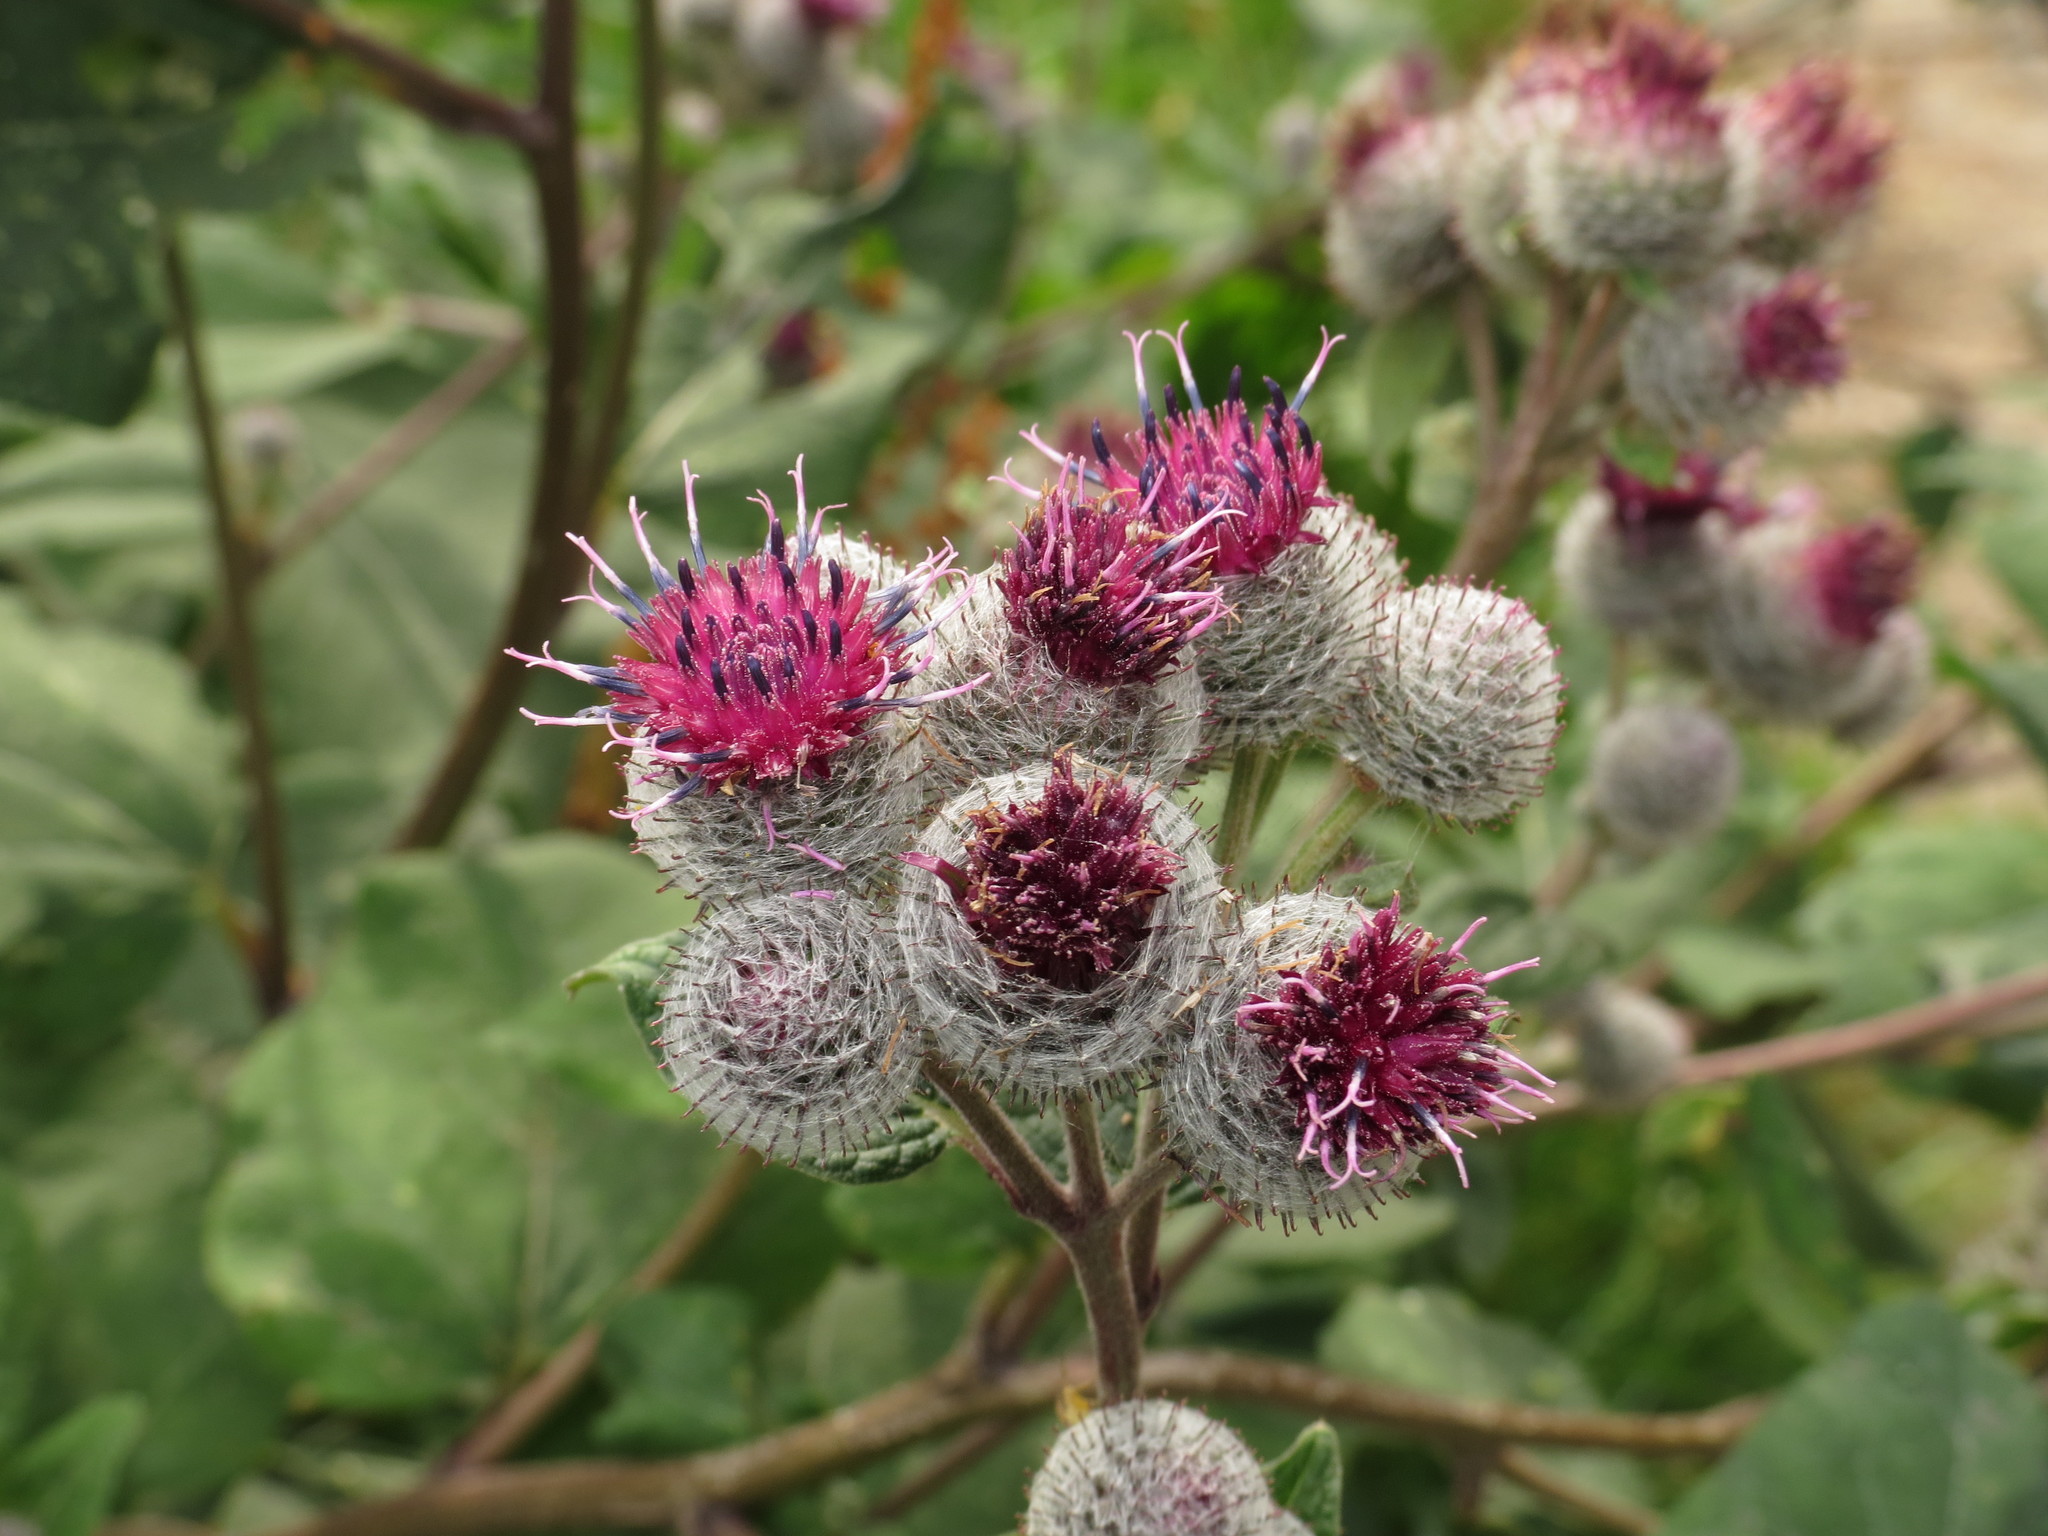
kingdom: Plantae
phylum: Tracheophyta
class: Magnoliopsida
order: Asterales
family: Asteraceae
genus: Arctium
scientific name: Arctium tomentosum
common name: Woolly burdock
